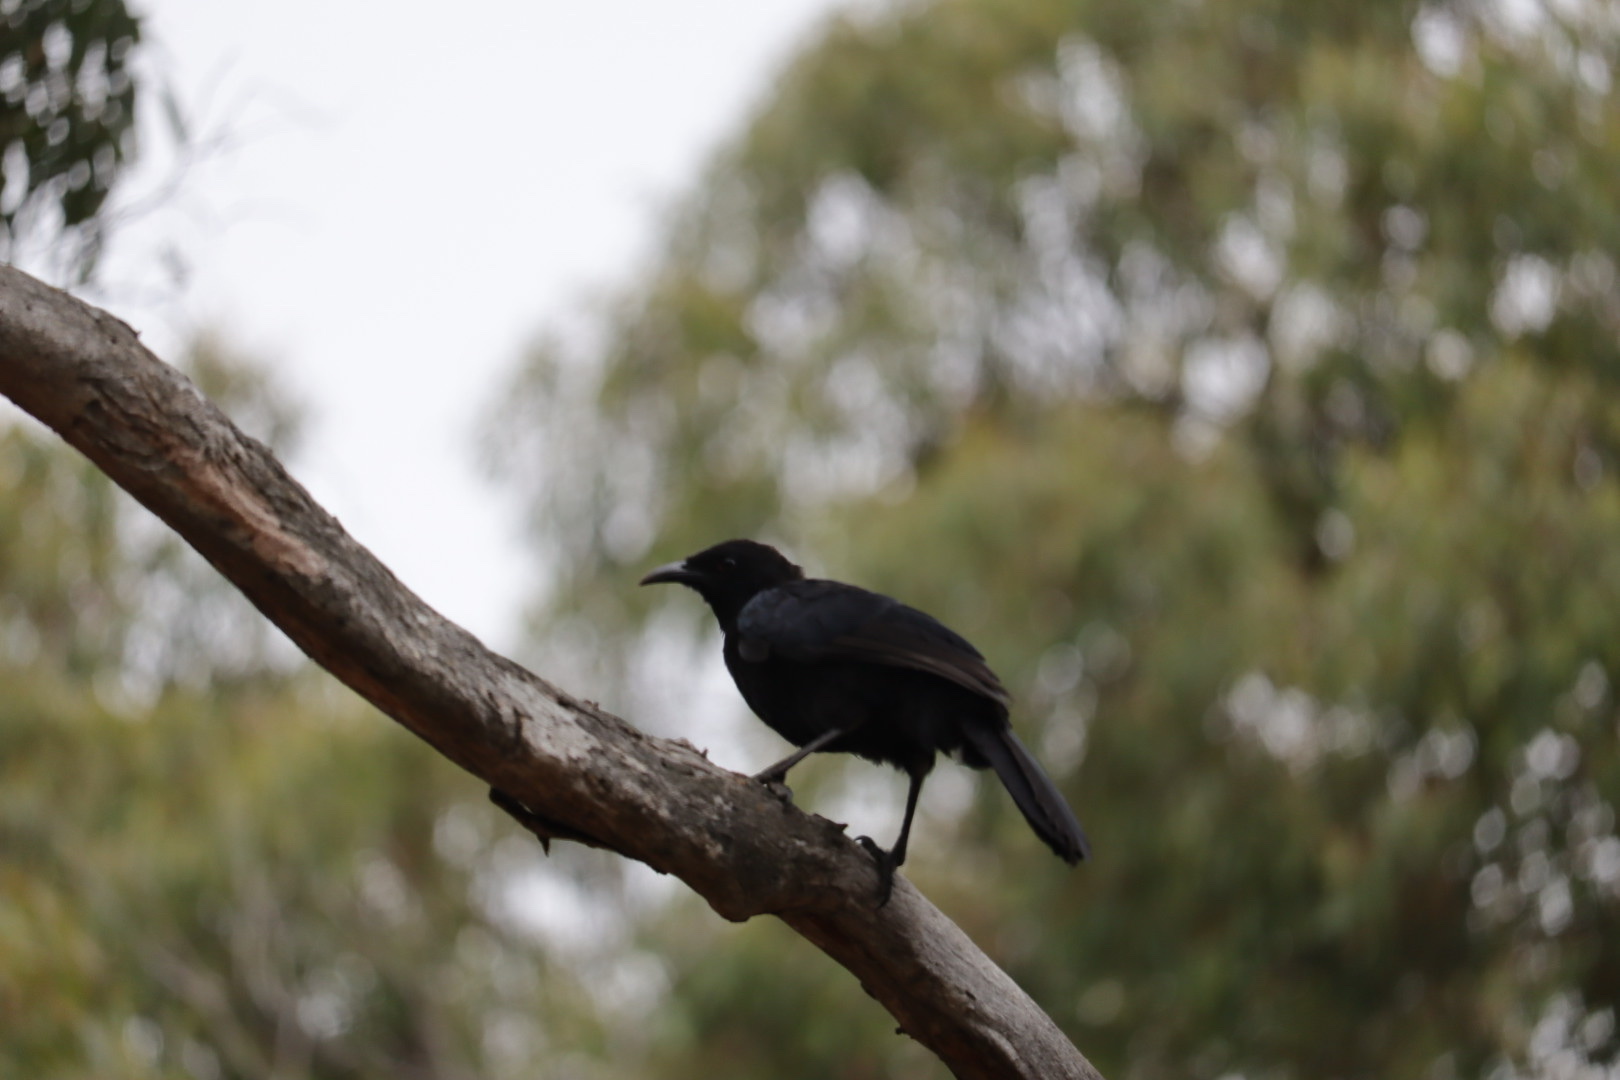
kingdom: Animalia
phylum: Chordata
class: Aves
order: Passeriformes
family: Corcoracidae
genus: Corcorax
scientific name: Corcorax melanoramphos
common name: White-winged chough
